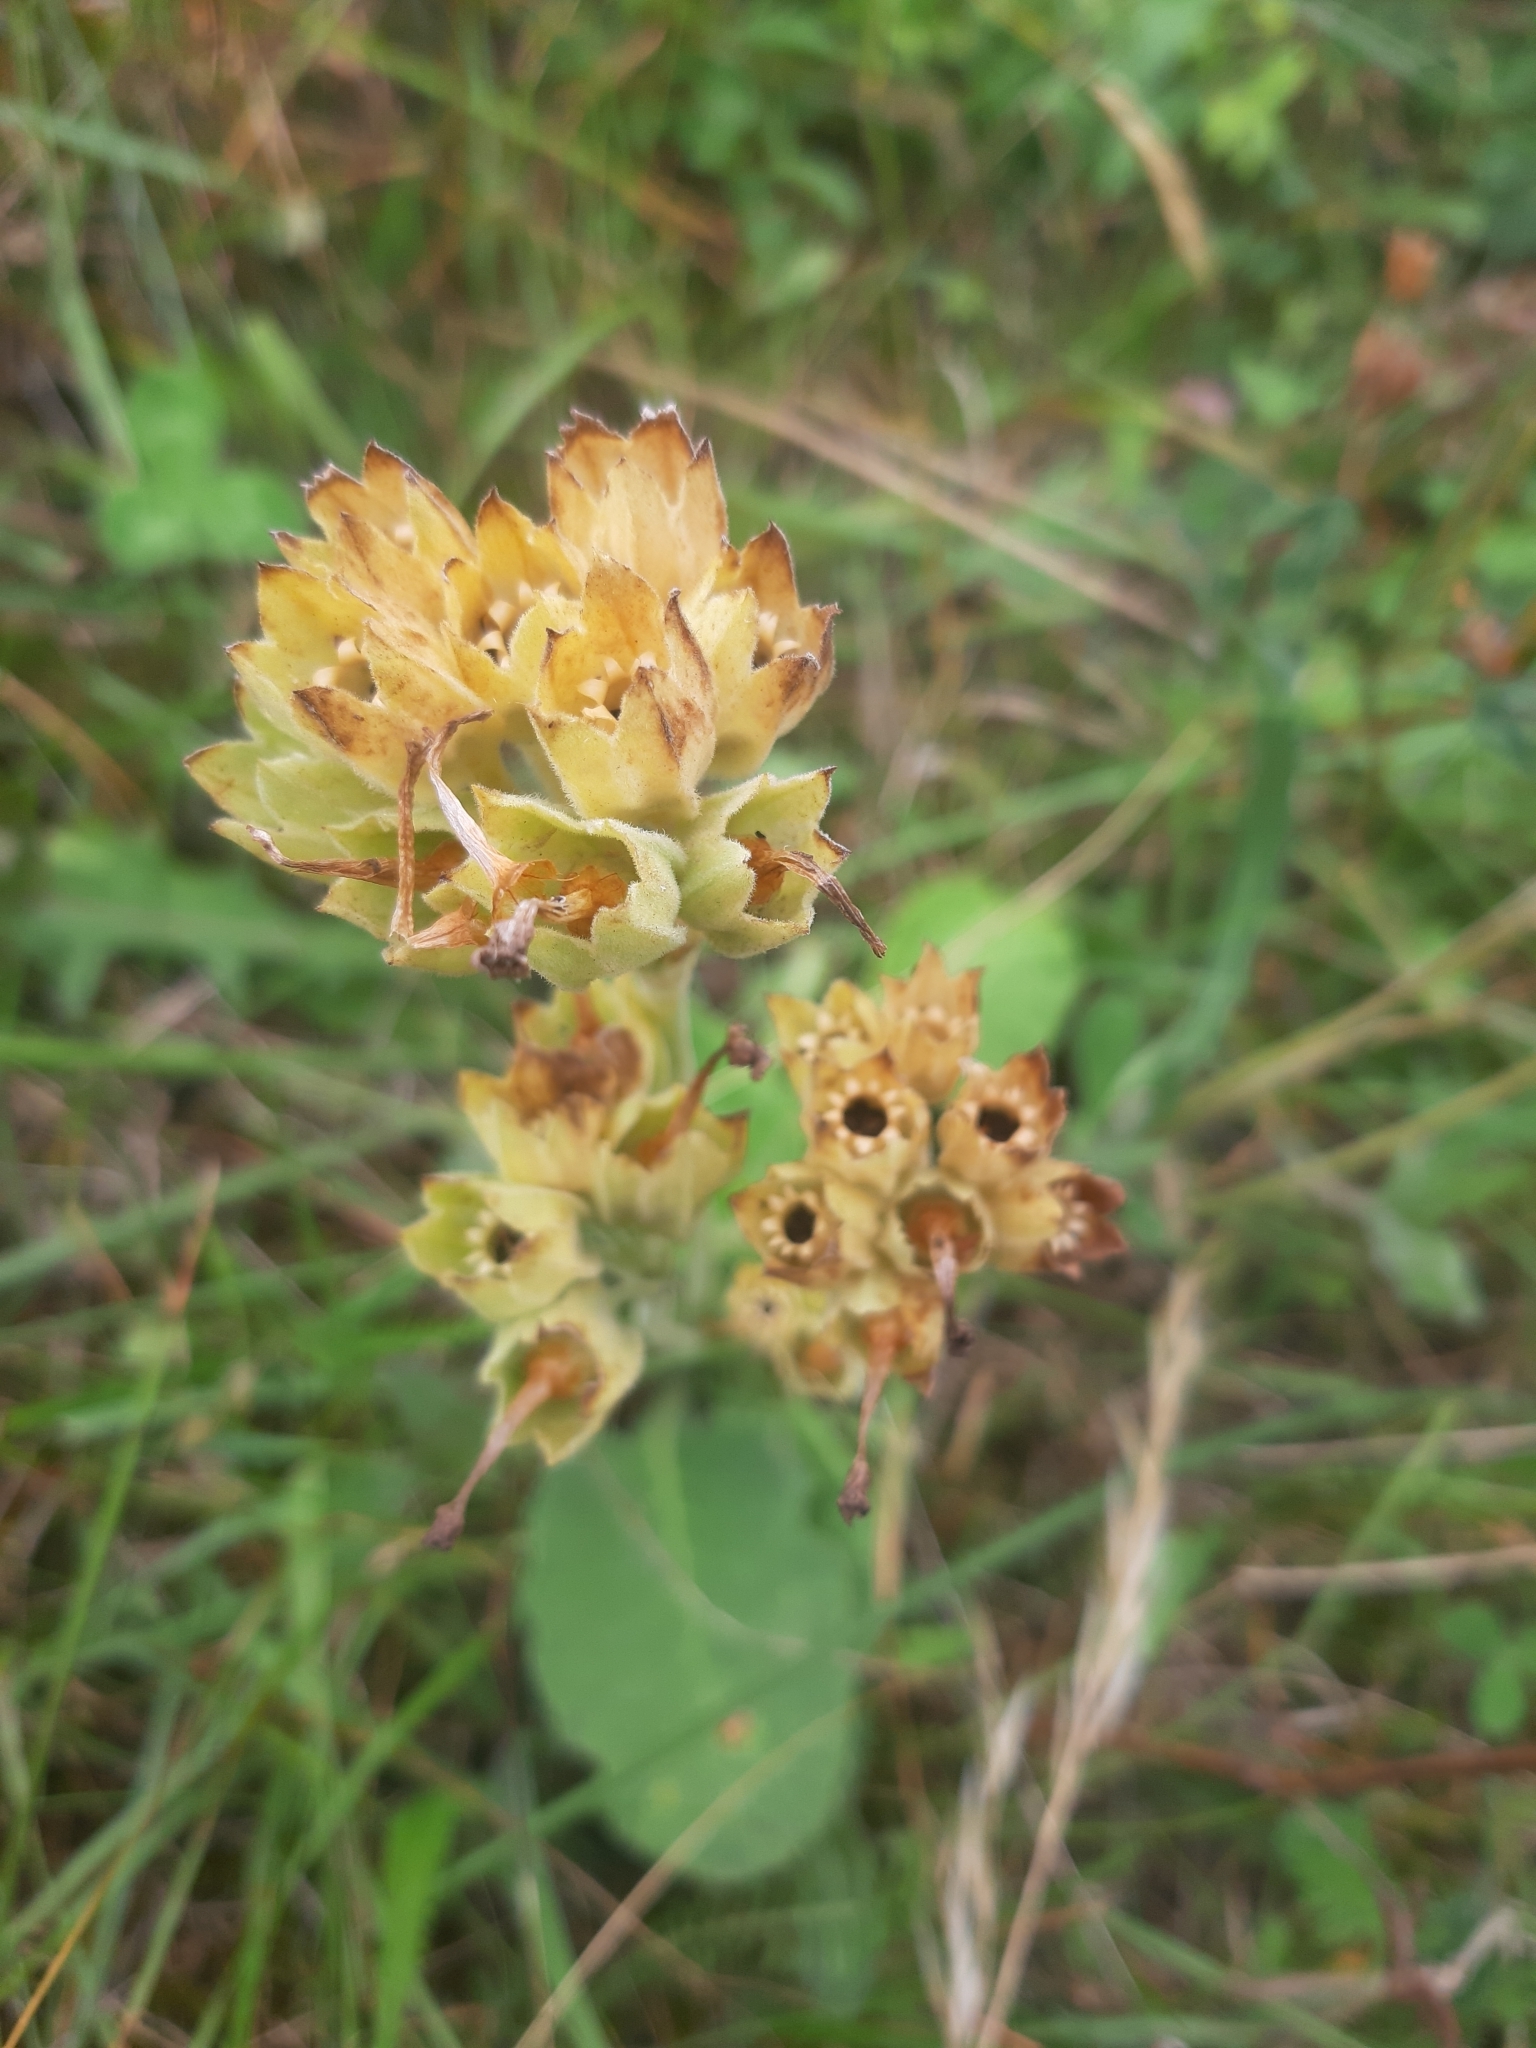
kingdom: Plantae
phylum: Tracheophyta
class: Magnoliopsida
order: Ericales
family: Primulaceae
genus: Primula
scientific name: Primula veris
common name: Cowslip
